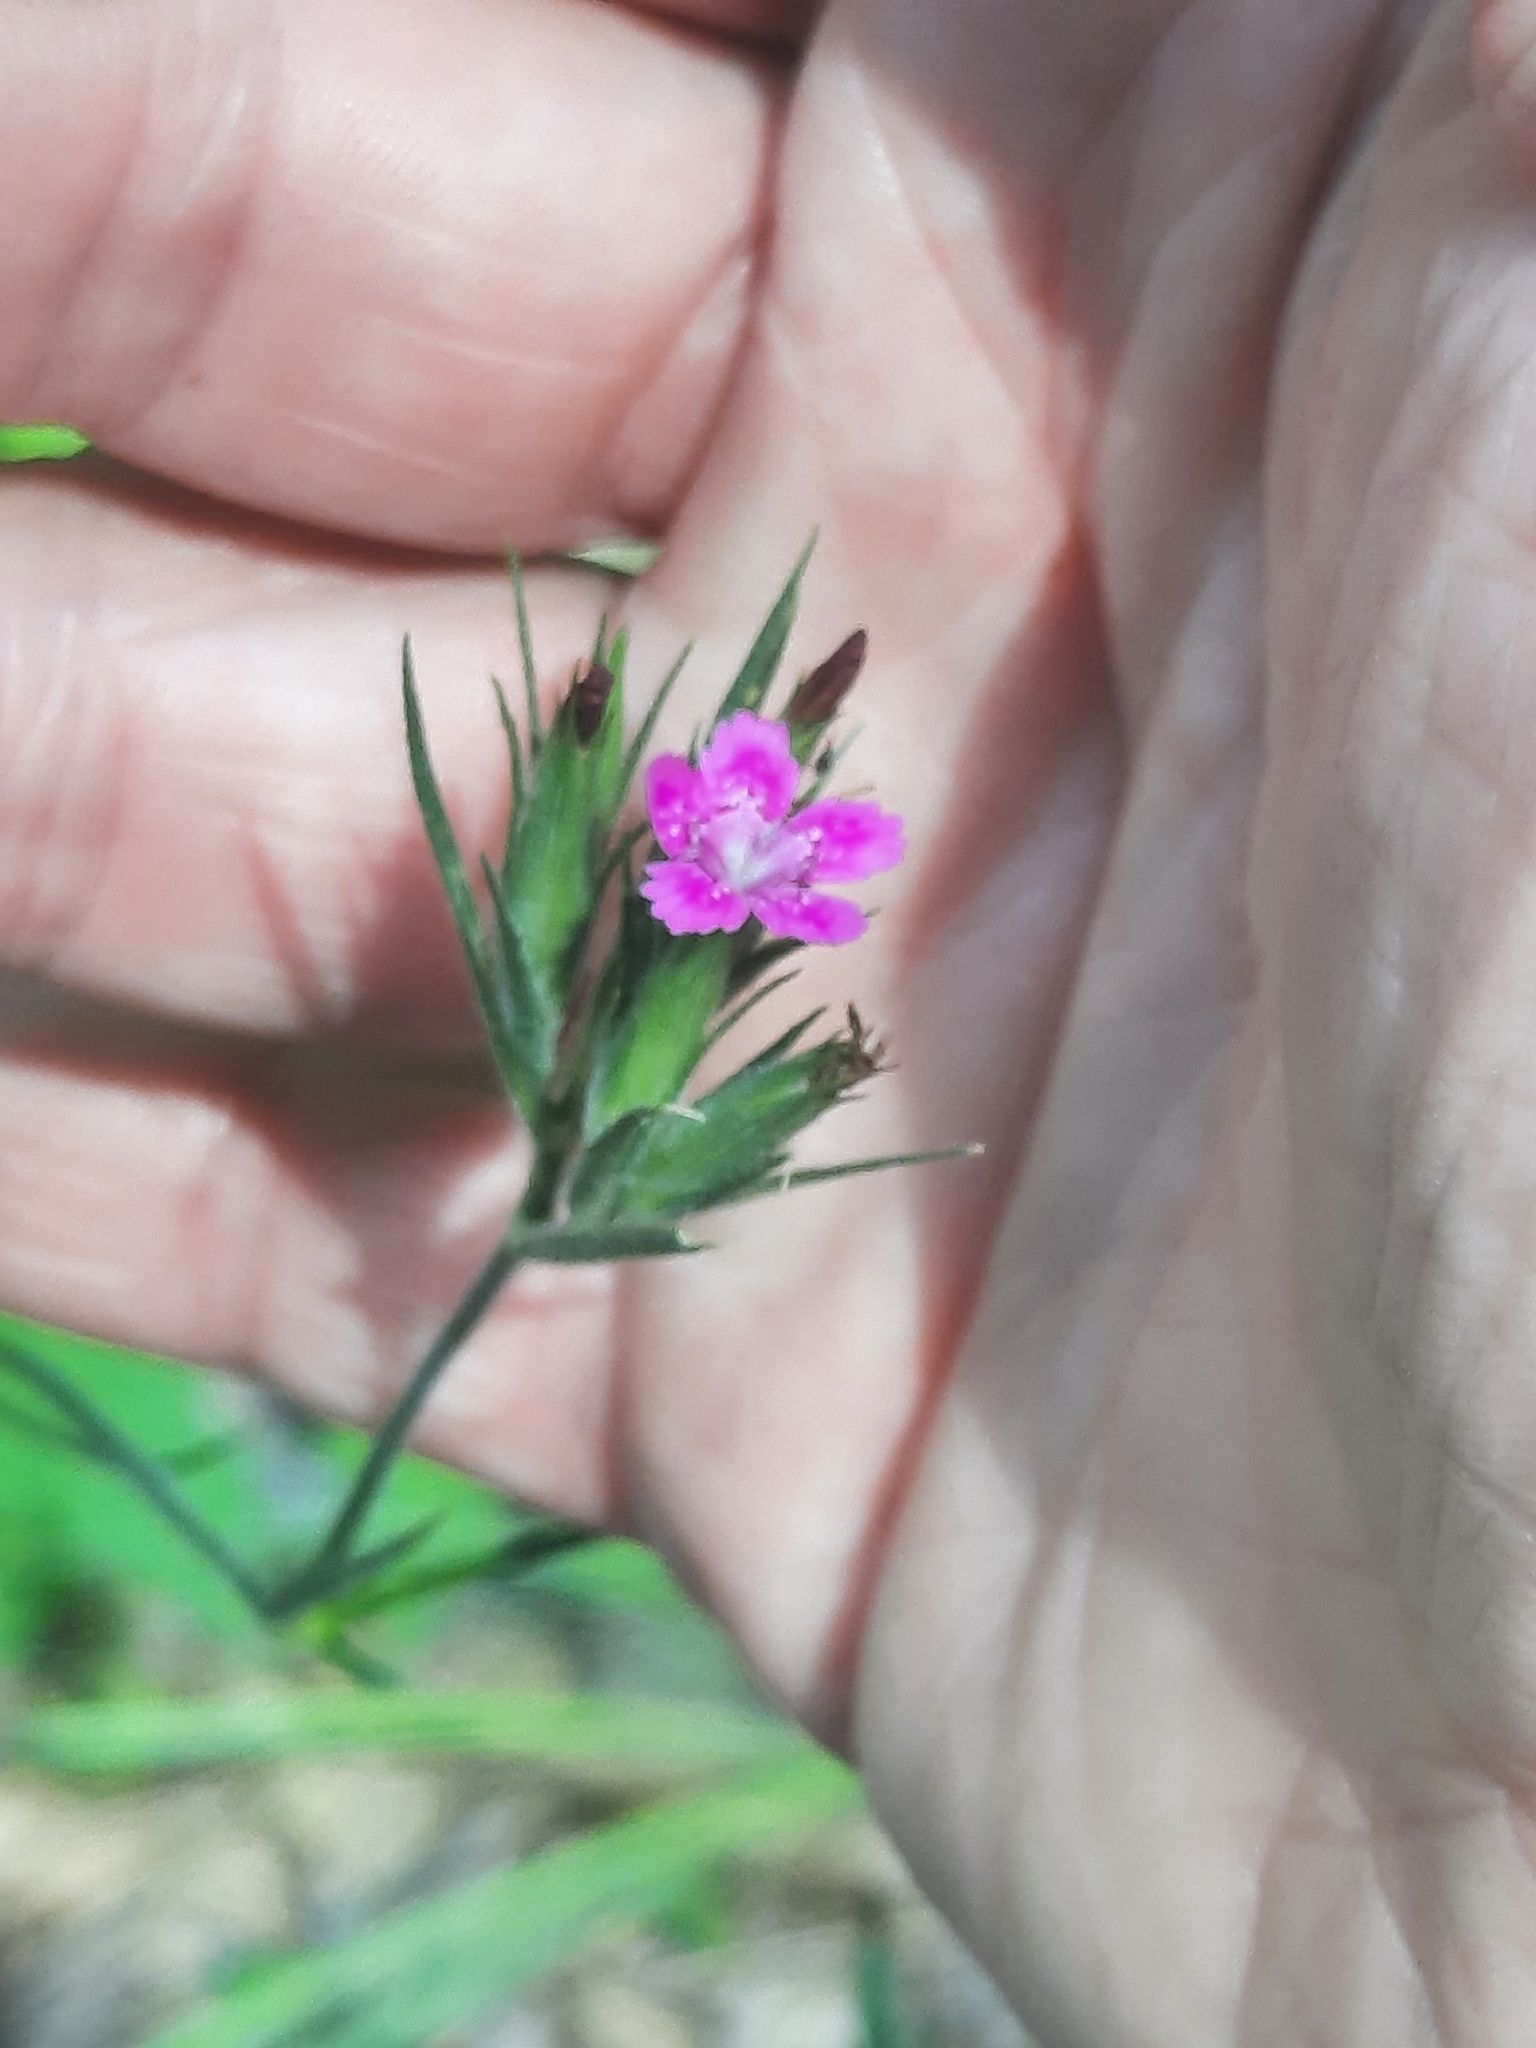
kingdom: Plantae
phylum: Tracheophyta
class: Magnoliopsida
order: Caryophyllales
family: Caryophyllaceae
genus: Dianthus
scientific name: Dianthus armeria
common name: Deptford pink
